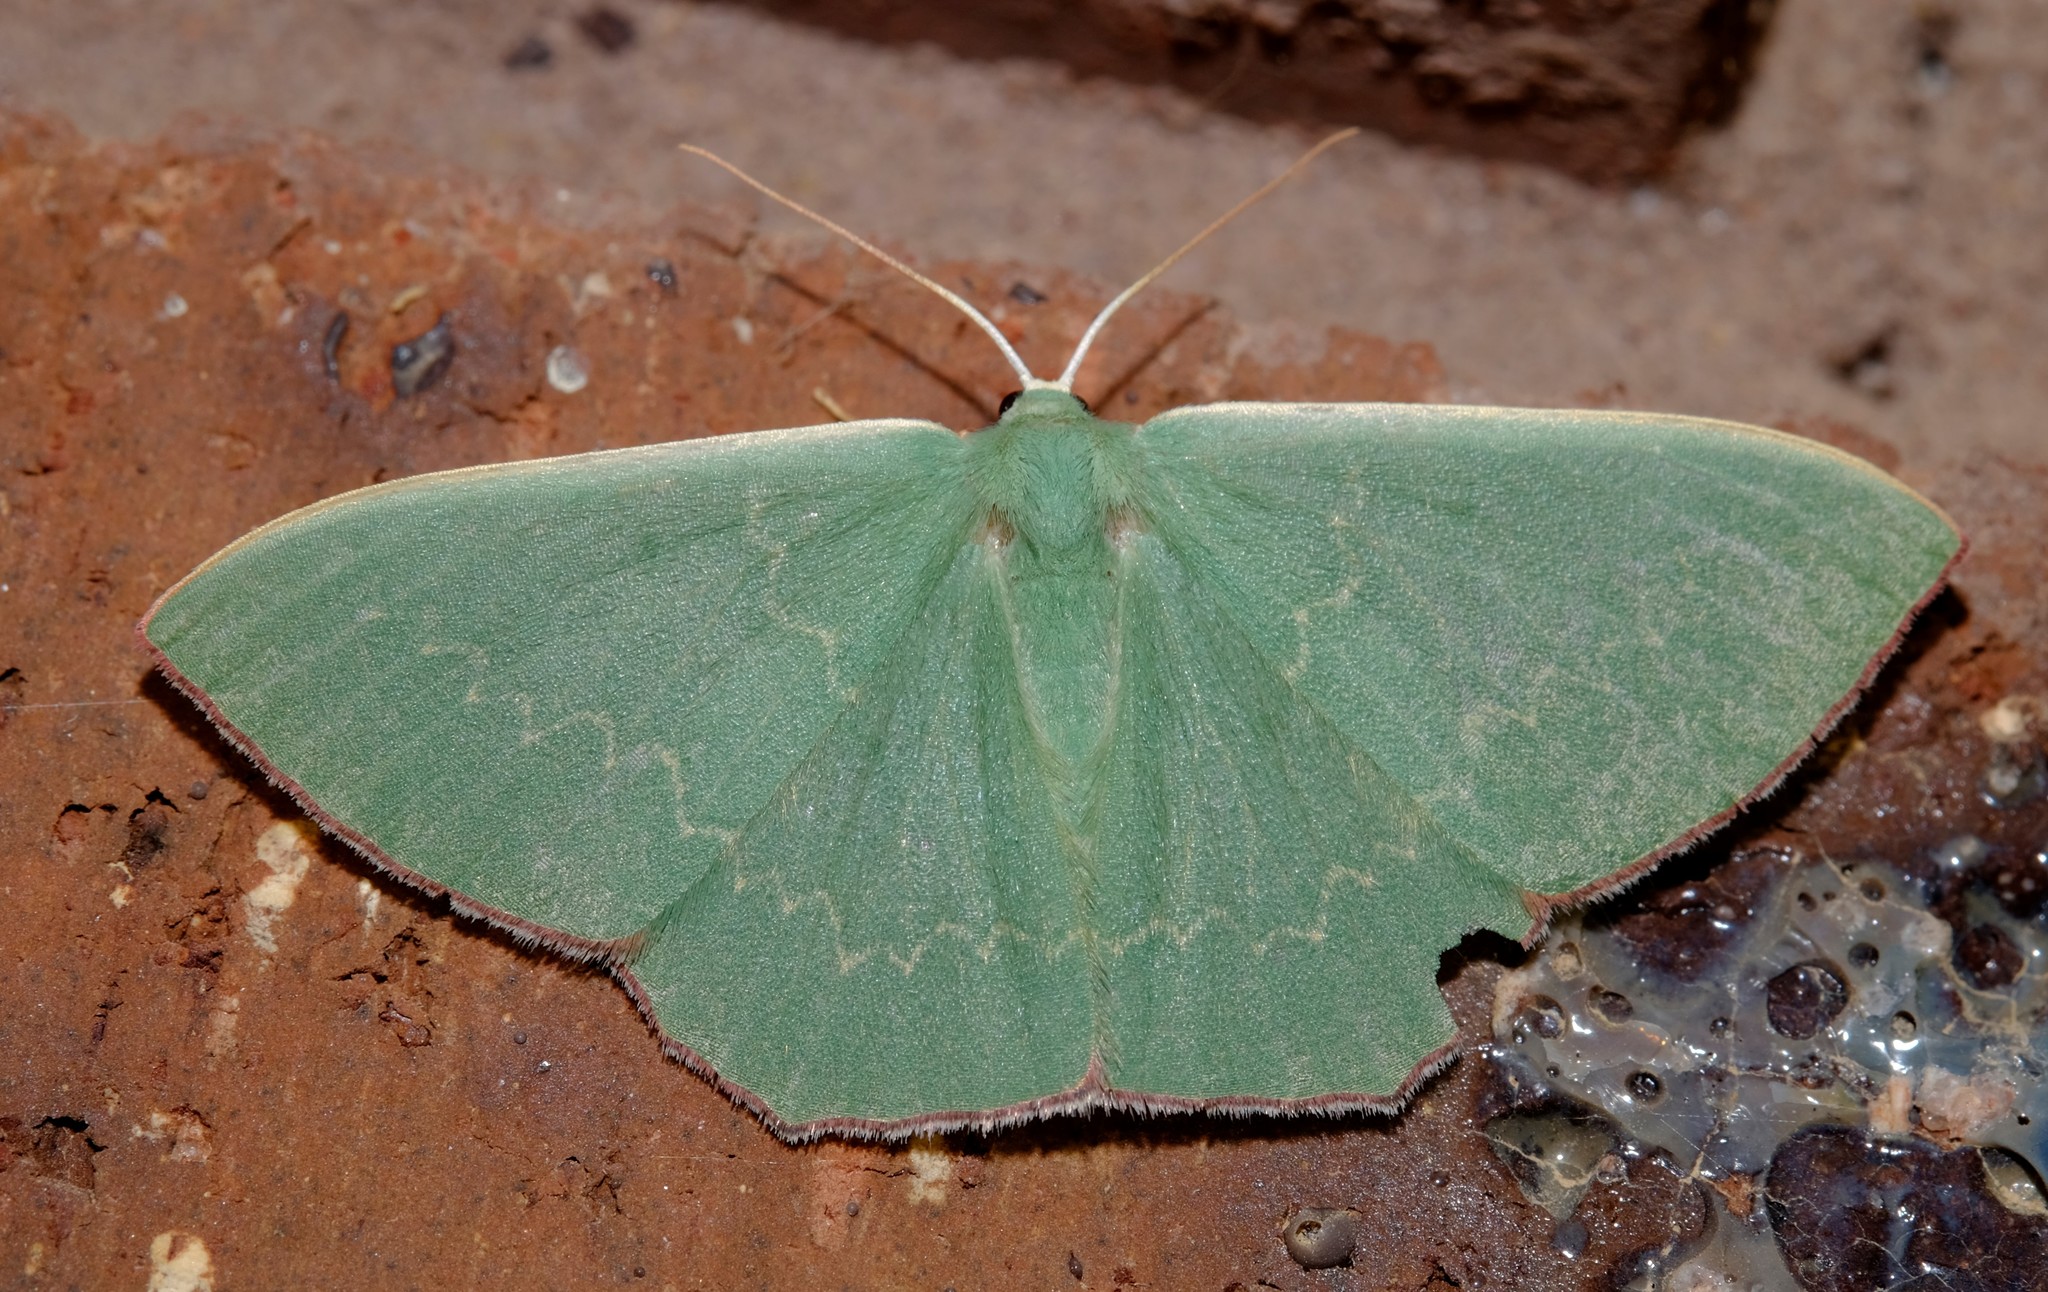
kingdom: Animalia
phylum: Arthropoda
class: Insecta
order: Lepidoptera
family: Geometridae
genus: Prasinocyma
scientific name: Prasinocyma semicrocea
